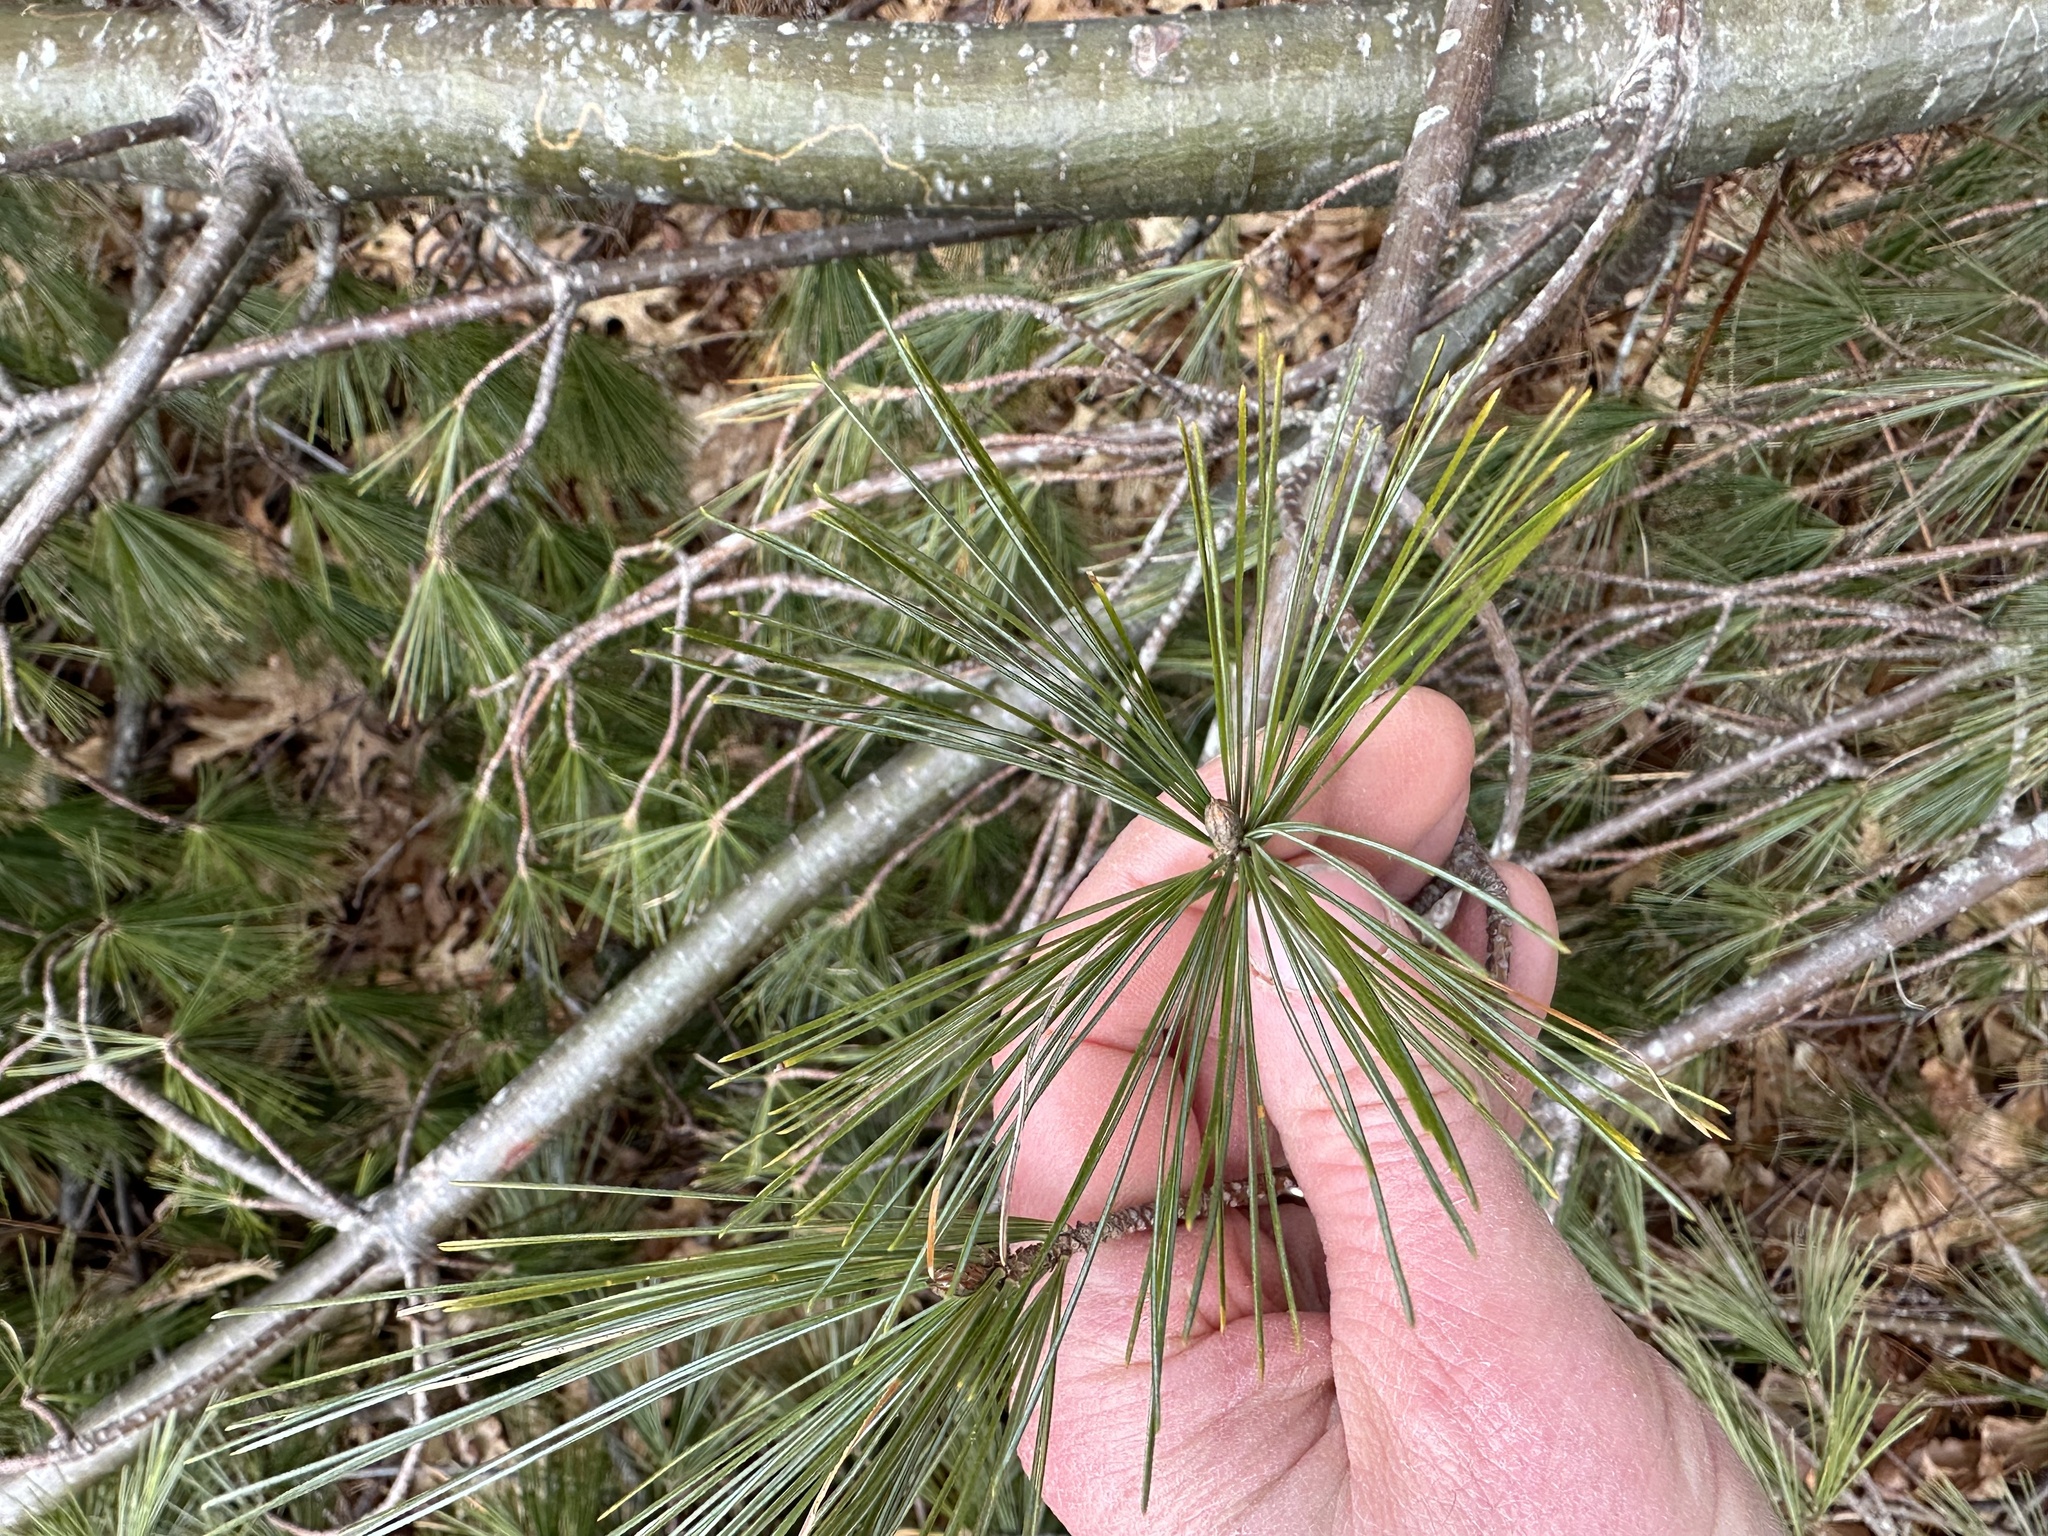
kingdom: Plantae
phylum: Tracheophyta
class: Pinopsida
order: Pinales
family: Pinaceae
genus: Pinus
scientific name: Pinus strobus
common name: Weymouth pine
